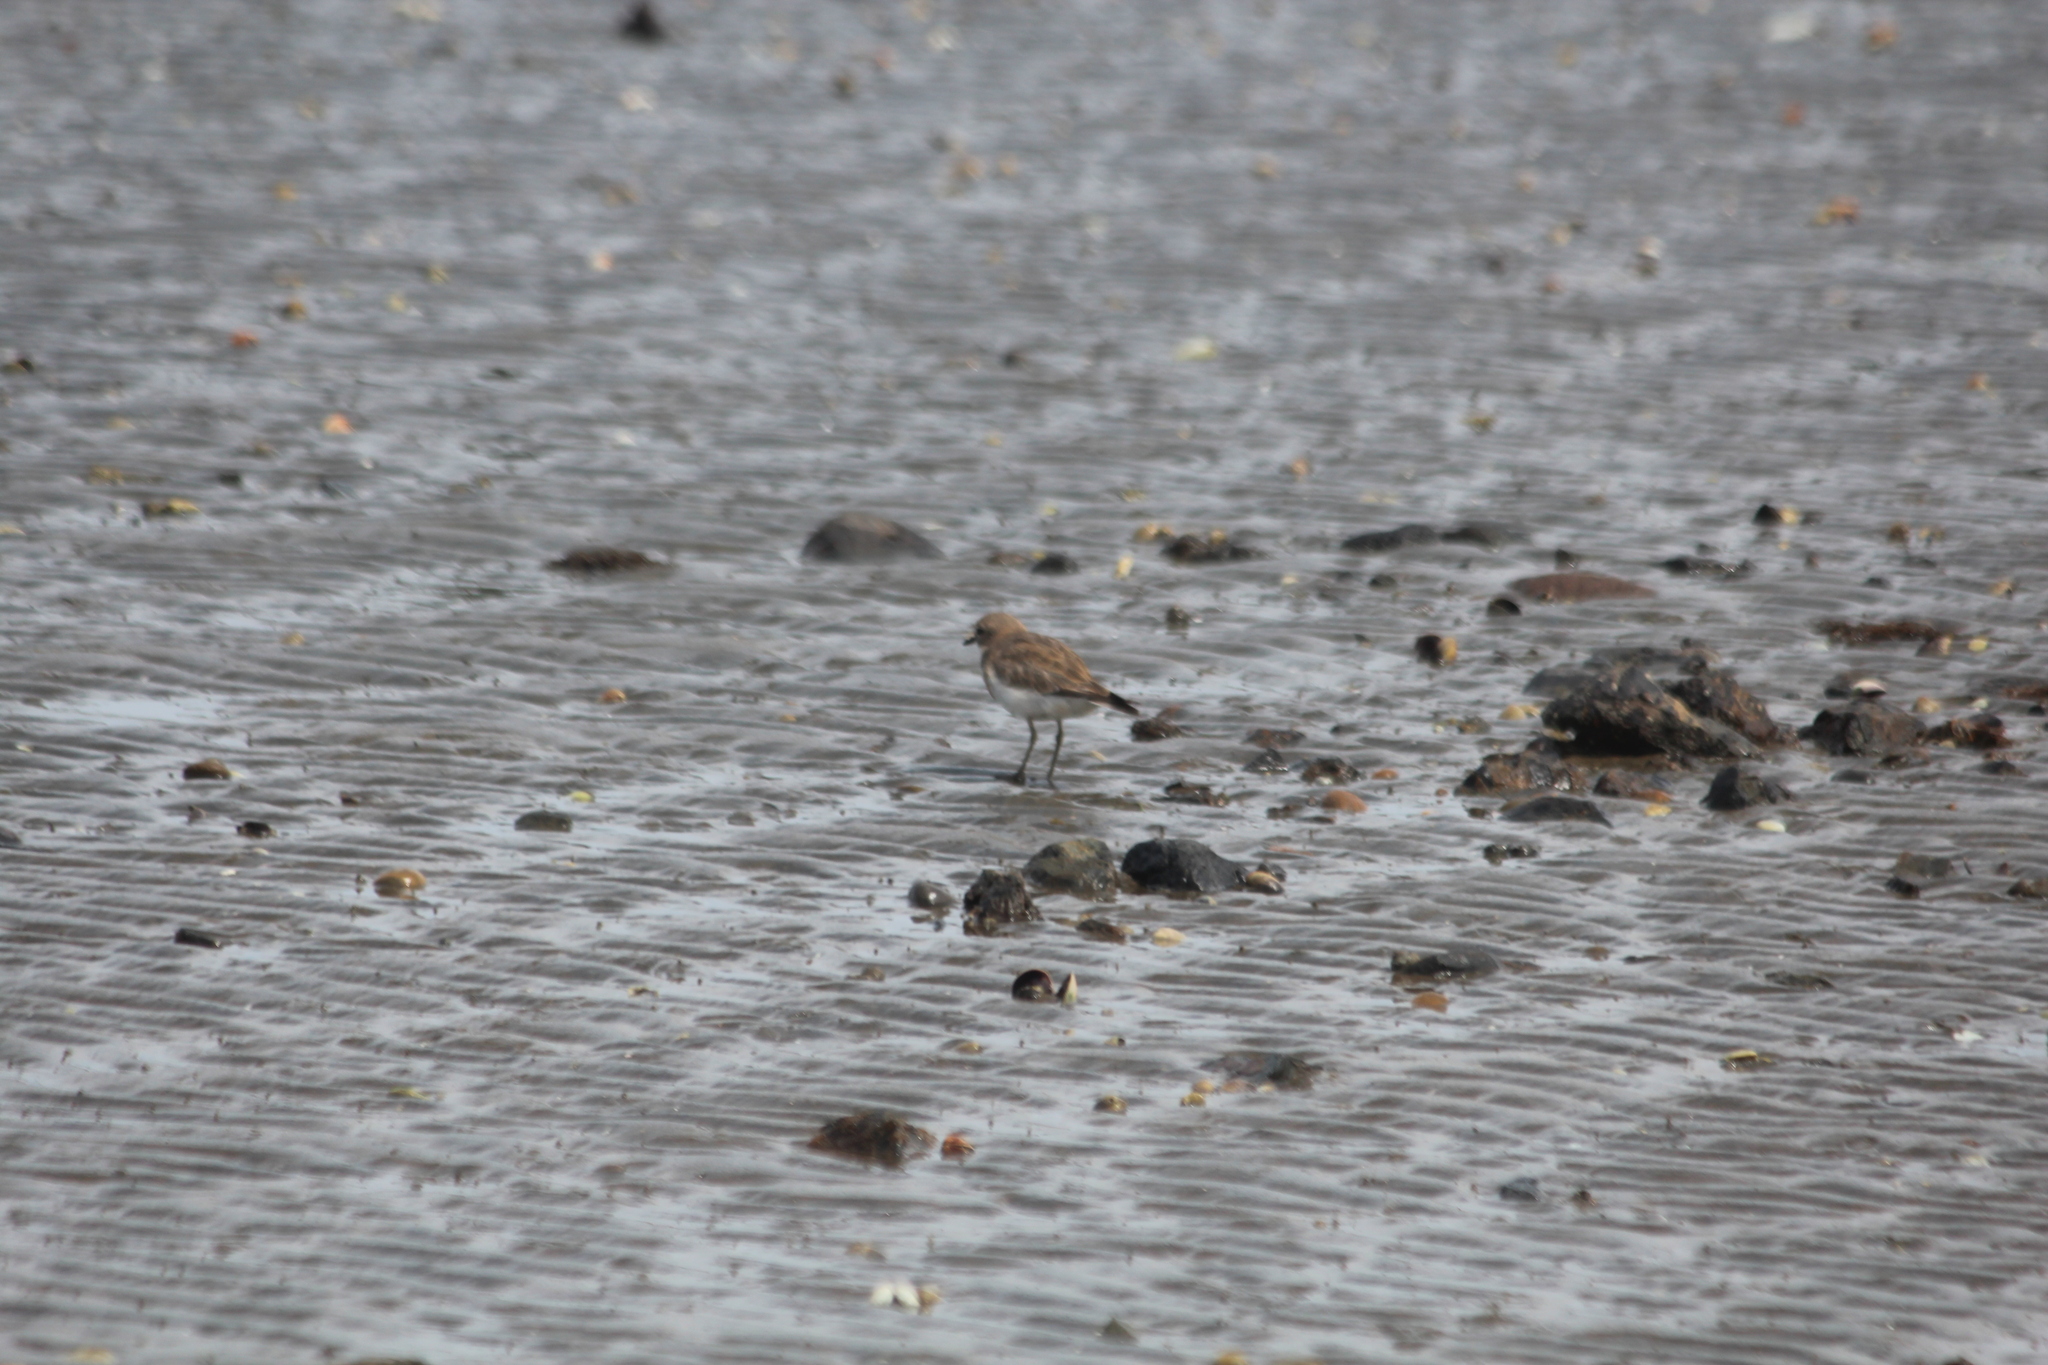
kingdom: Animalia
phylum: Chordata
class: Aves
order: Charadriiformes
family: Charadriidae
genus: Anarhynchus
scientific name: Anarhynchus
